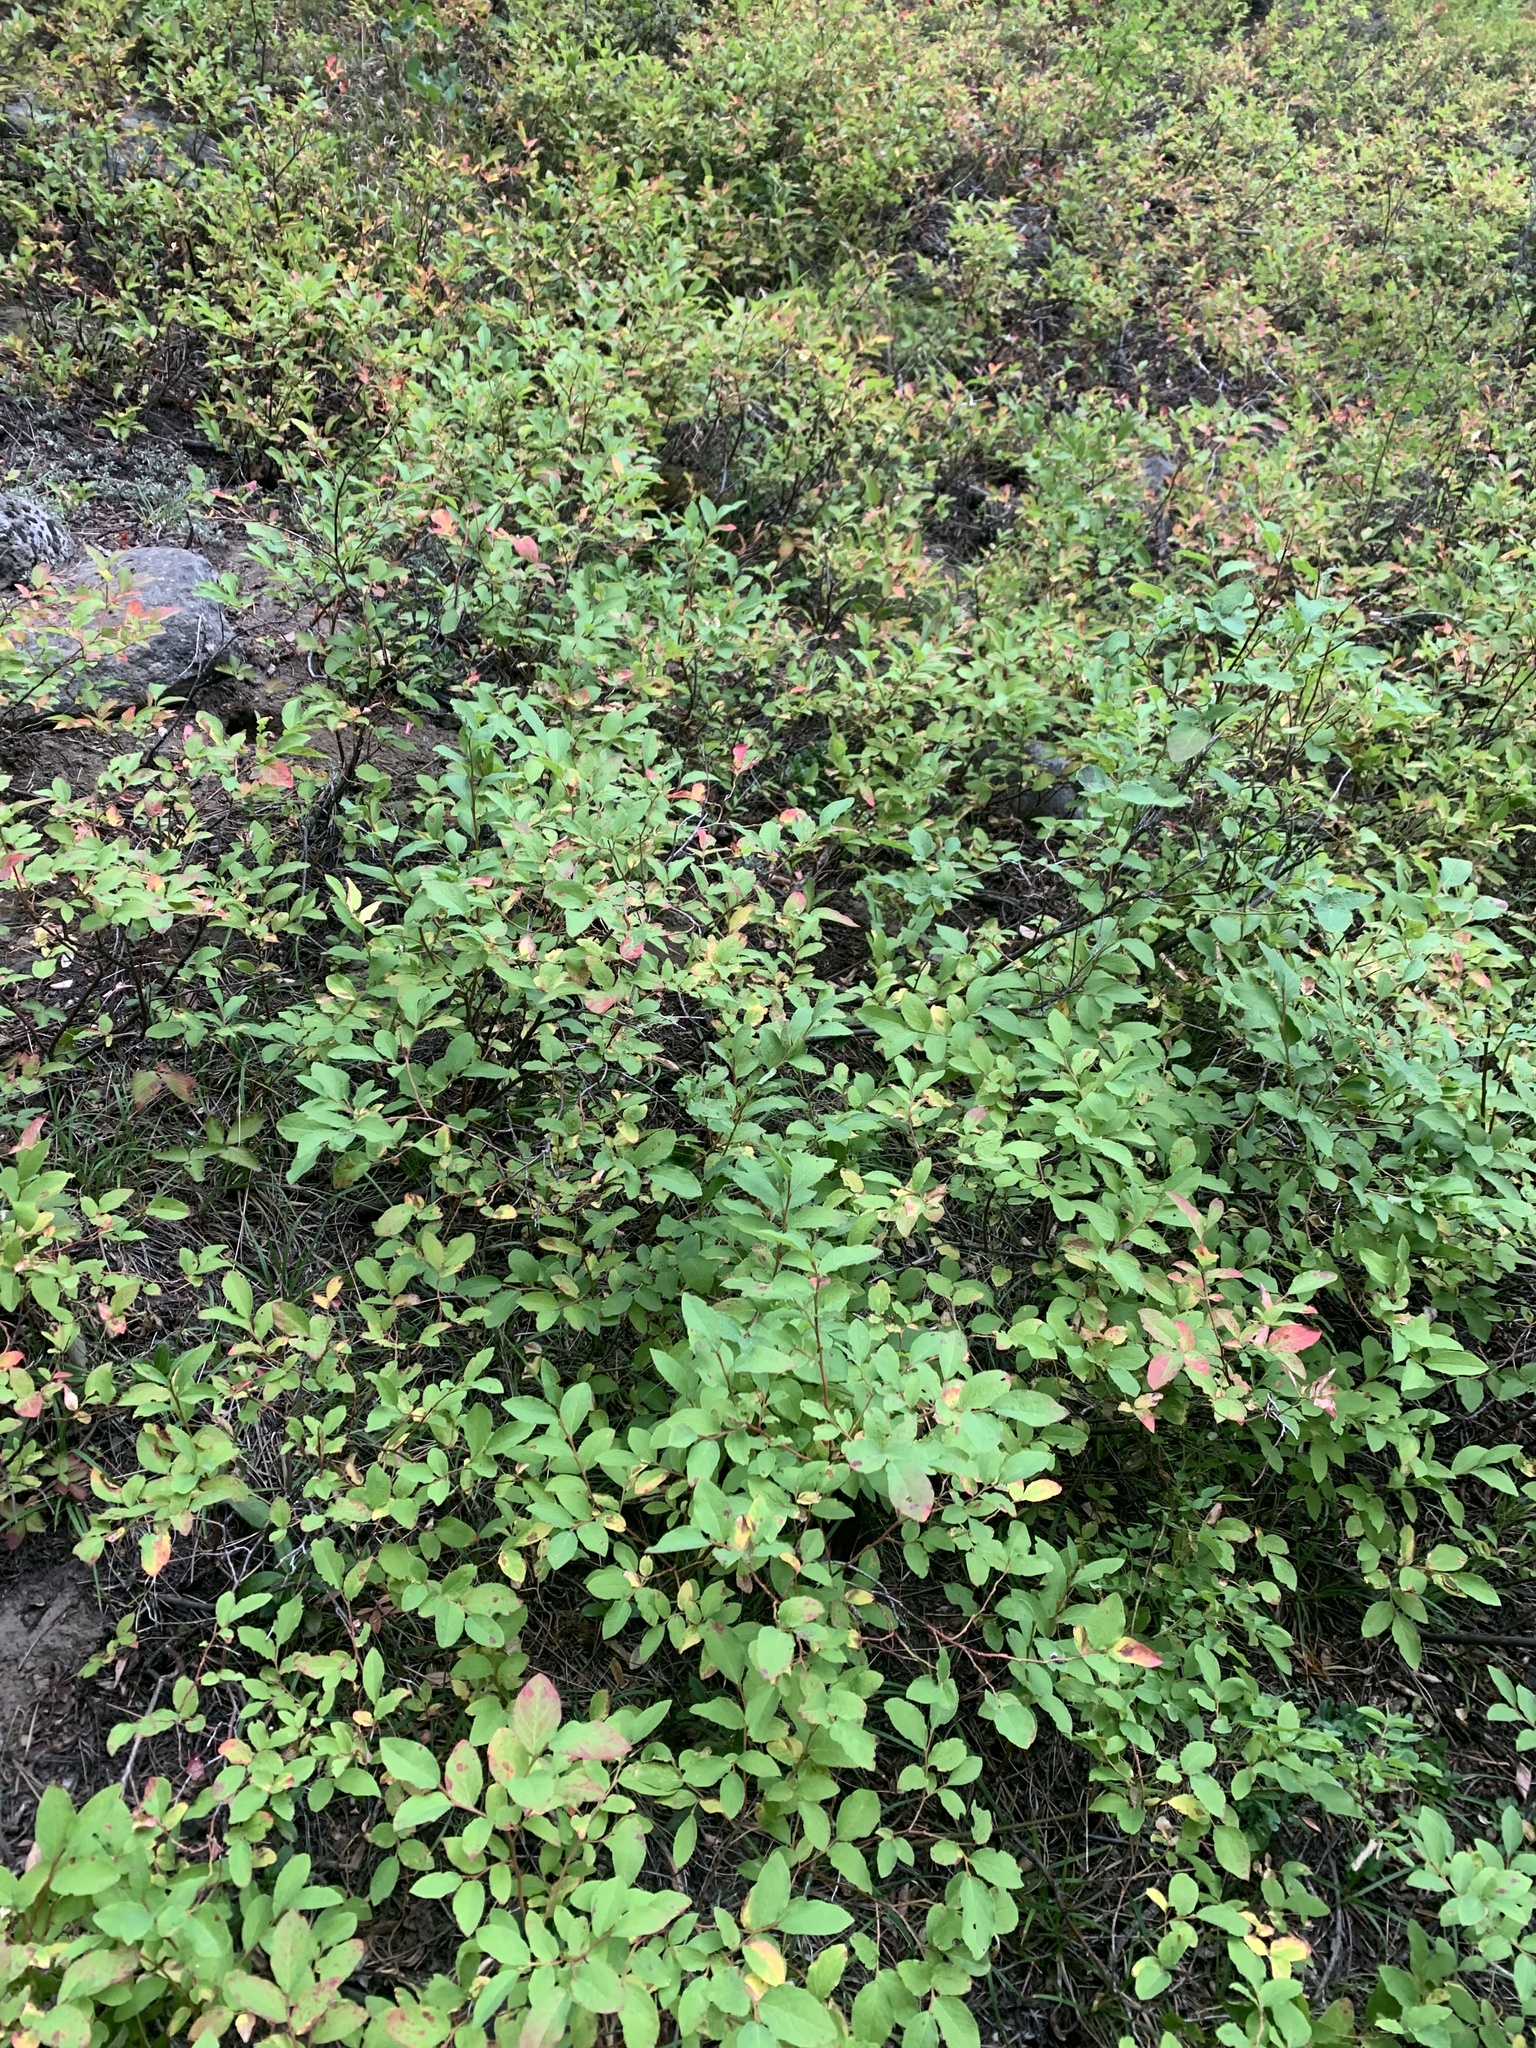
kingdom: Plantae
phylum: Tracheophyta
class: Magnoliopsida
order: Ericales
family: Ericaceae
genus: Vaccinium
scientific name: Vaccinium membranaceum
